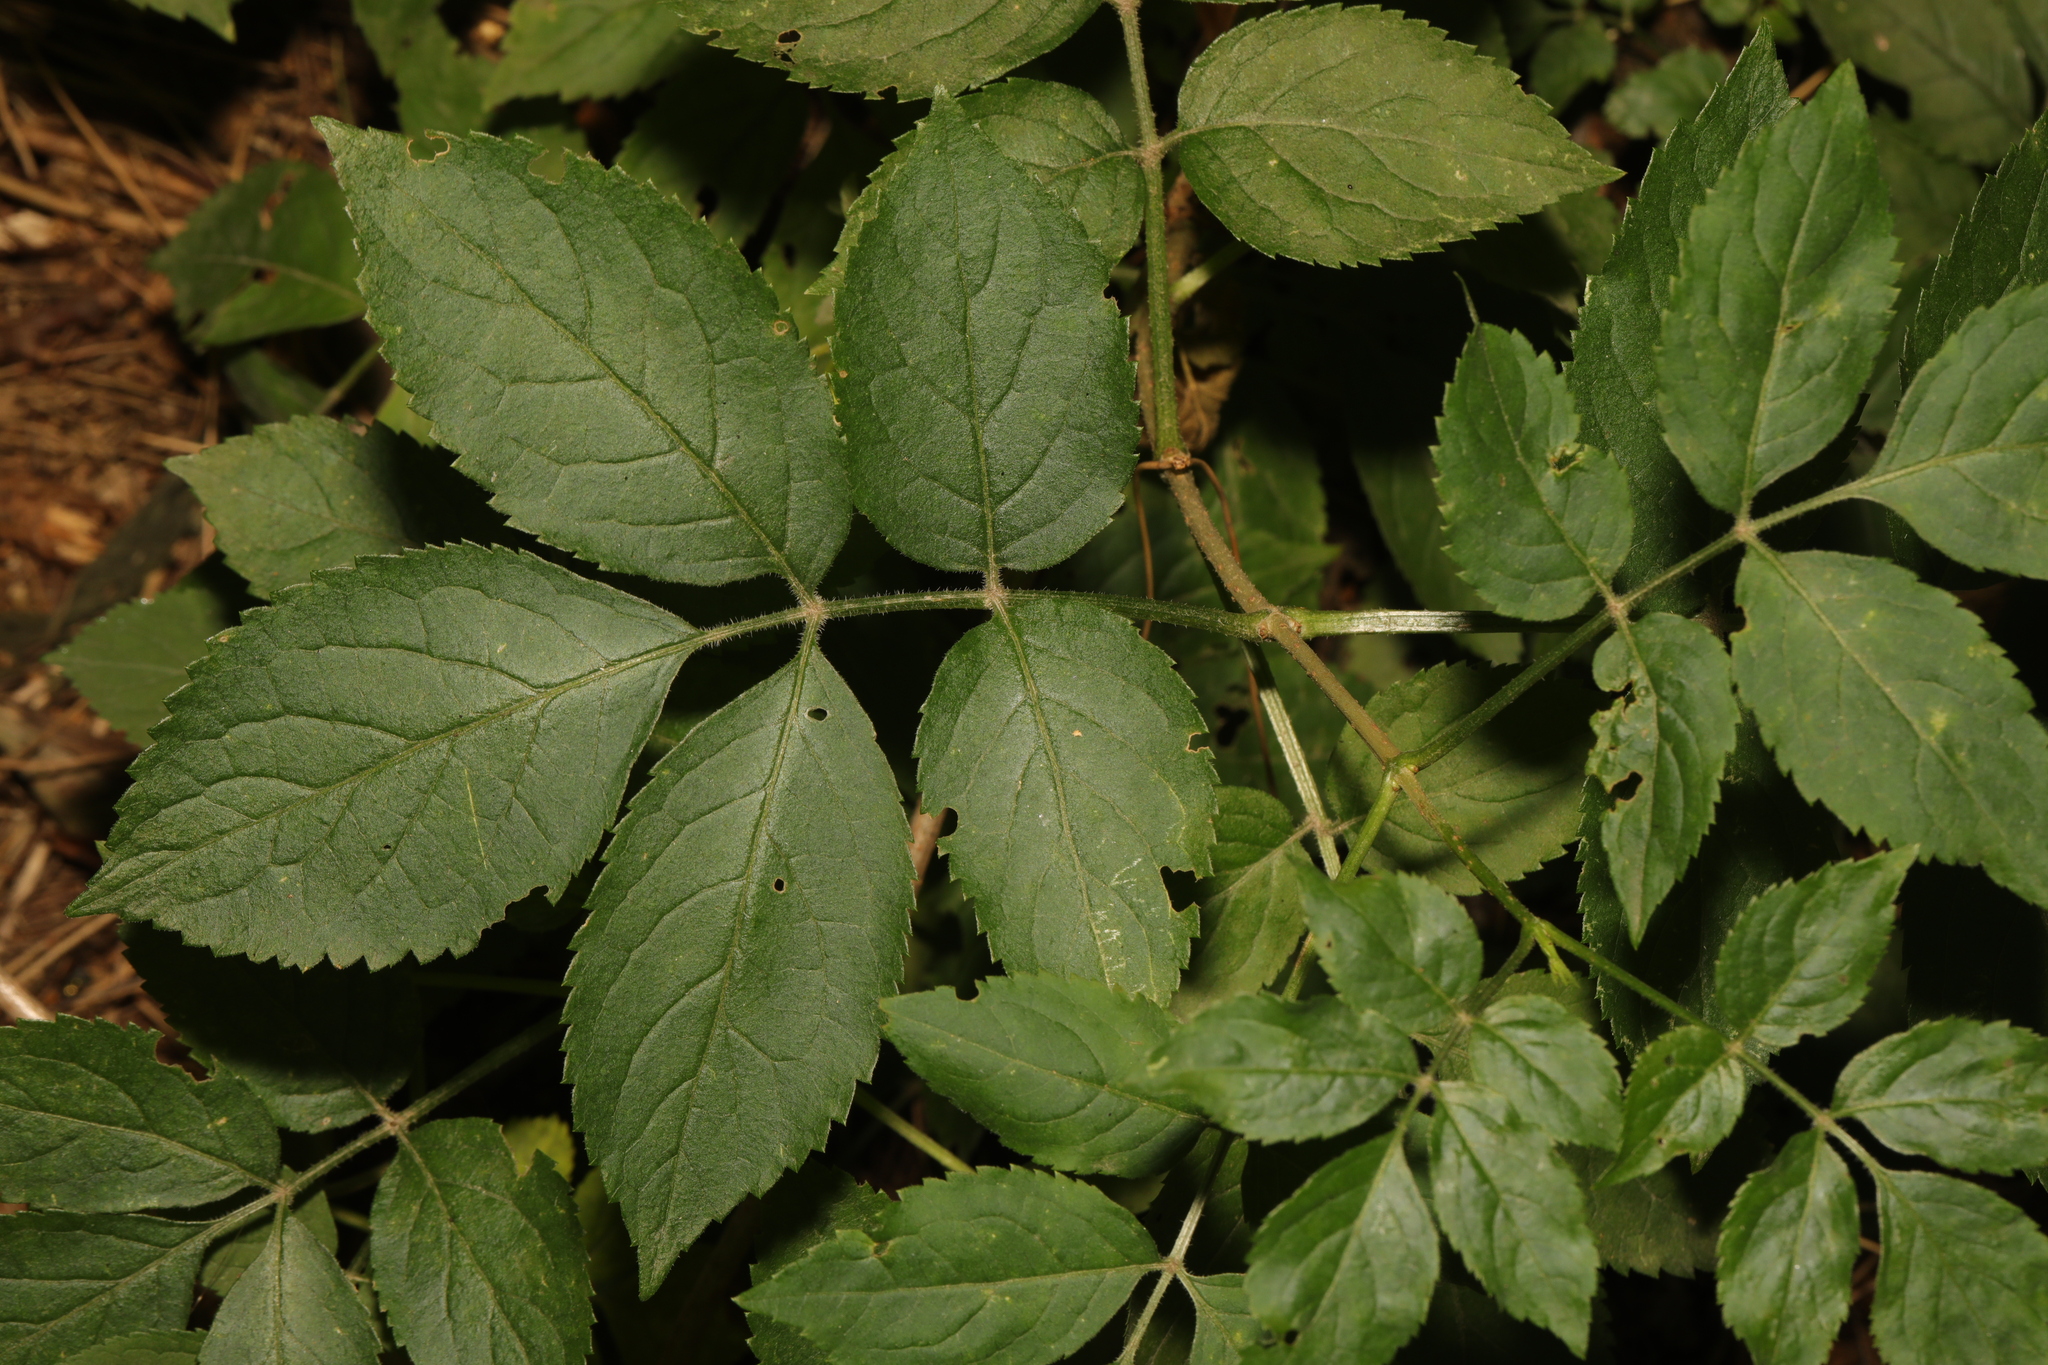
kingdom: Plantae
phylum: Tracheophyta
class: Magnoliopsida
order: Dipsacales
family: Viburnaceae
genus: Sambucus
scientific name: Sambucus nigra
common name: Elder
